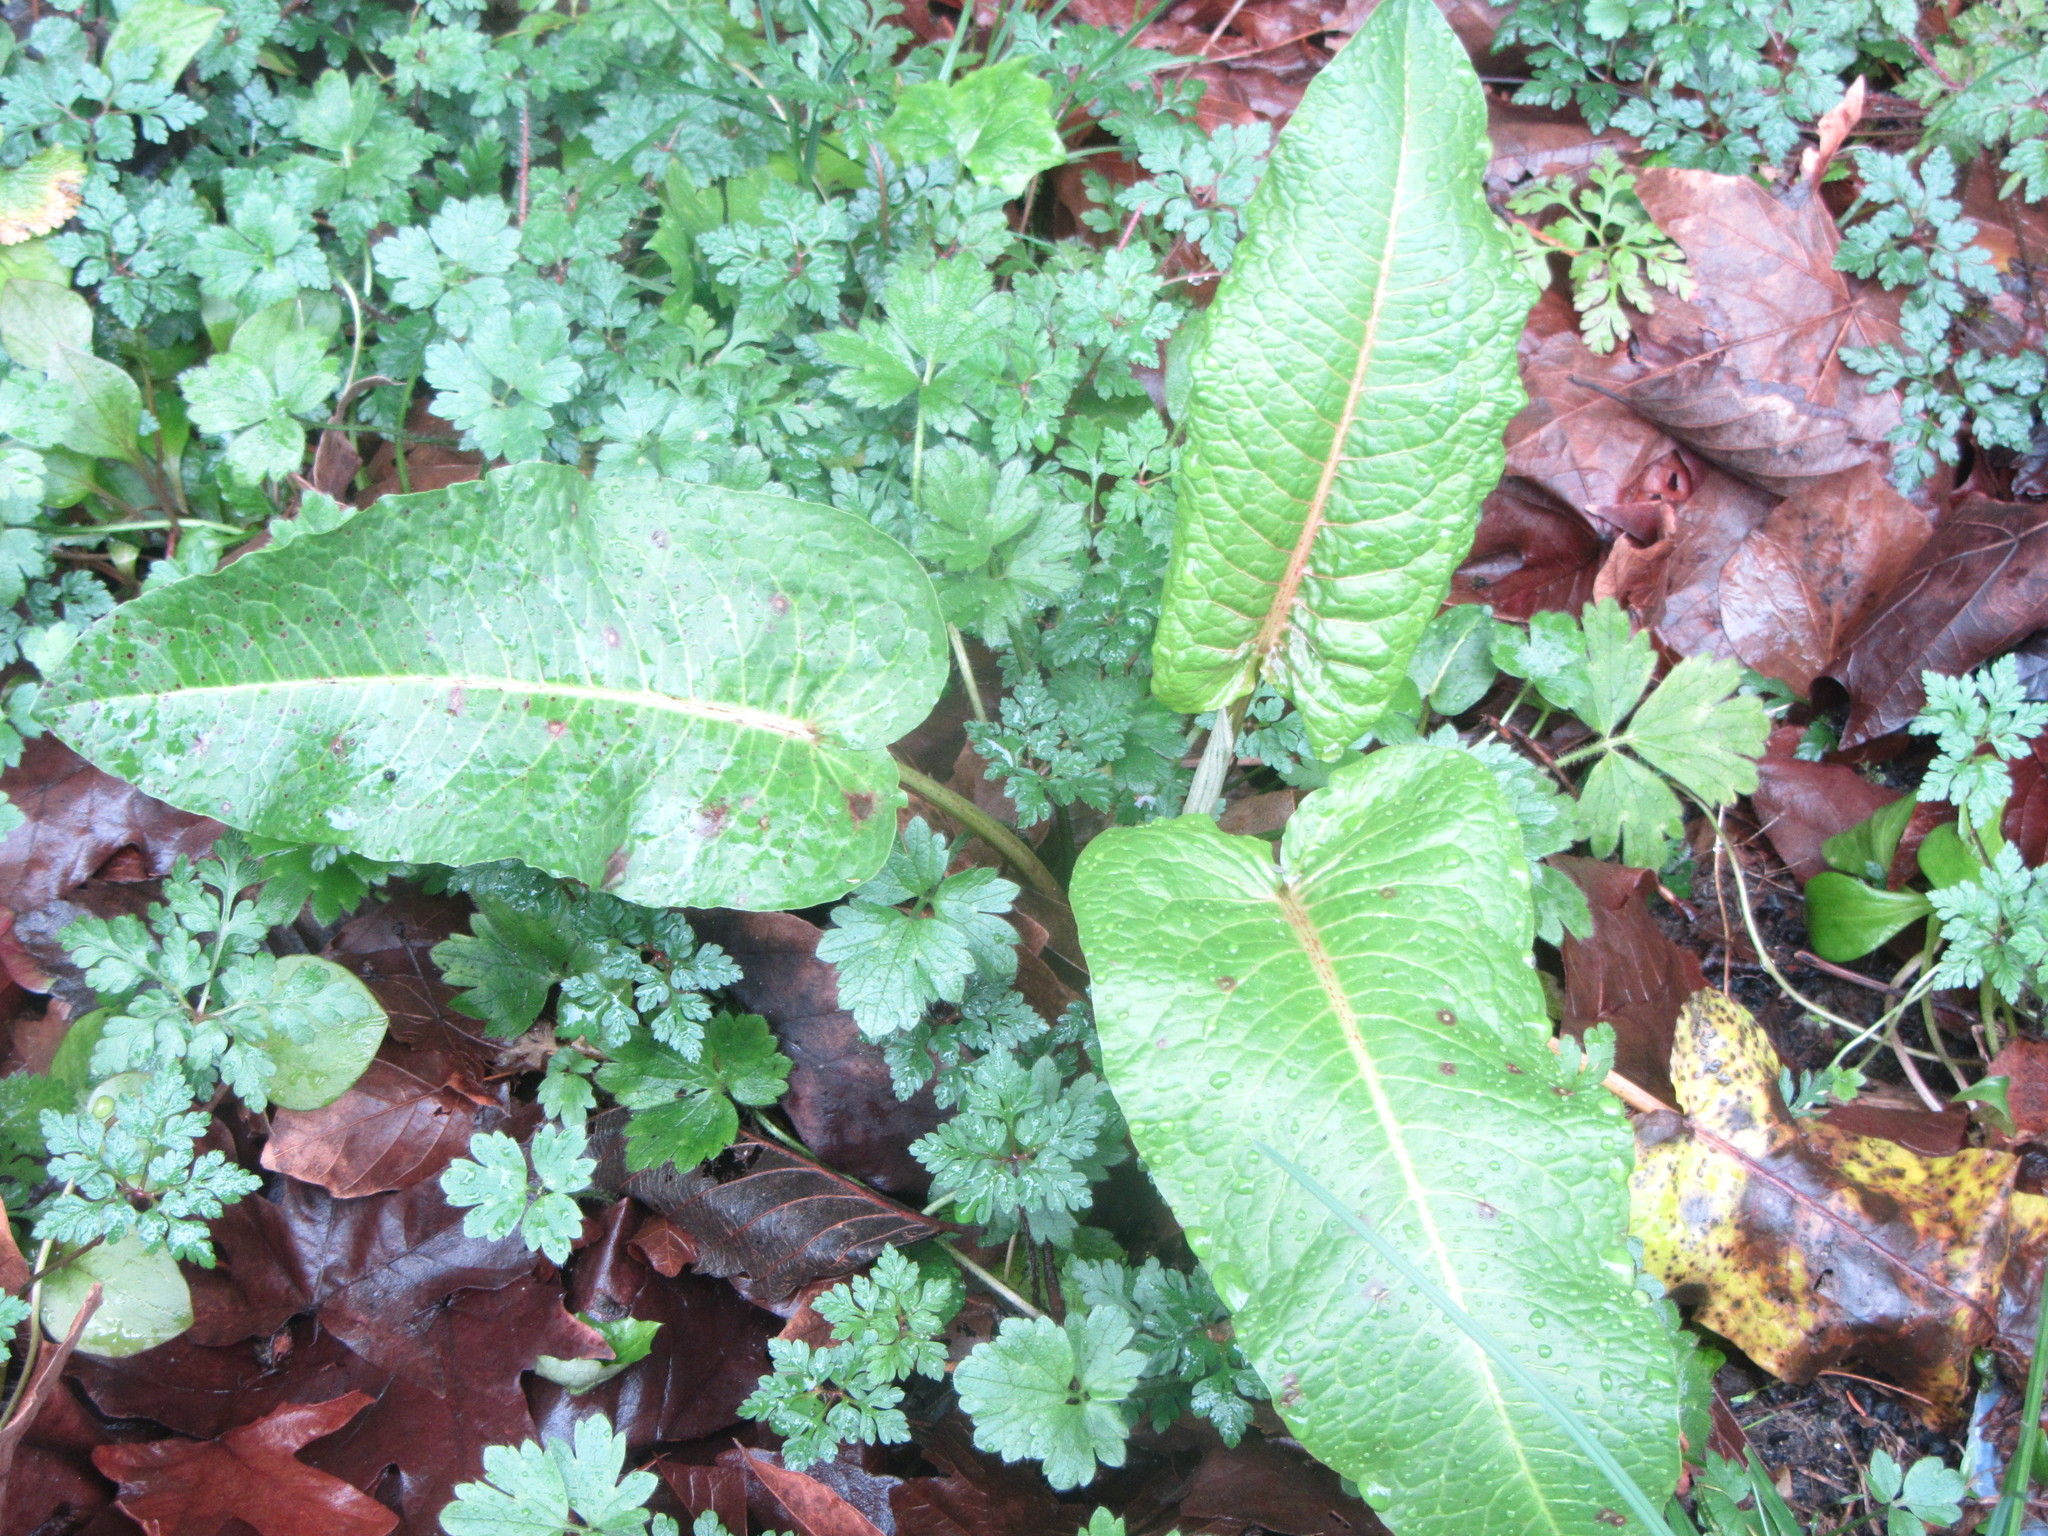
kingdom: Plantae
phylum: Tracheophyta
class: Magnoliopsida
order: Caryophyllales
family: Polygonaceae
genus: Rumex
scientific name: Rumex obtusifolius
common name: Bitter dock
